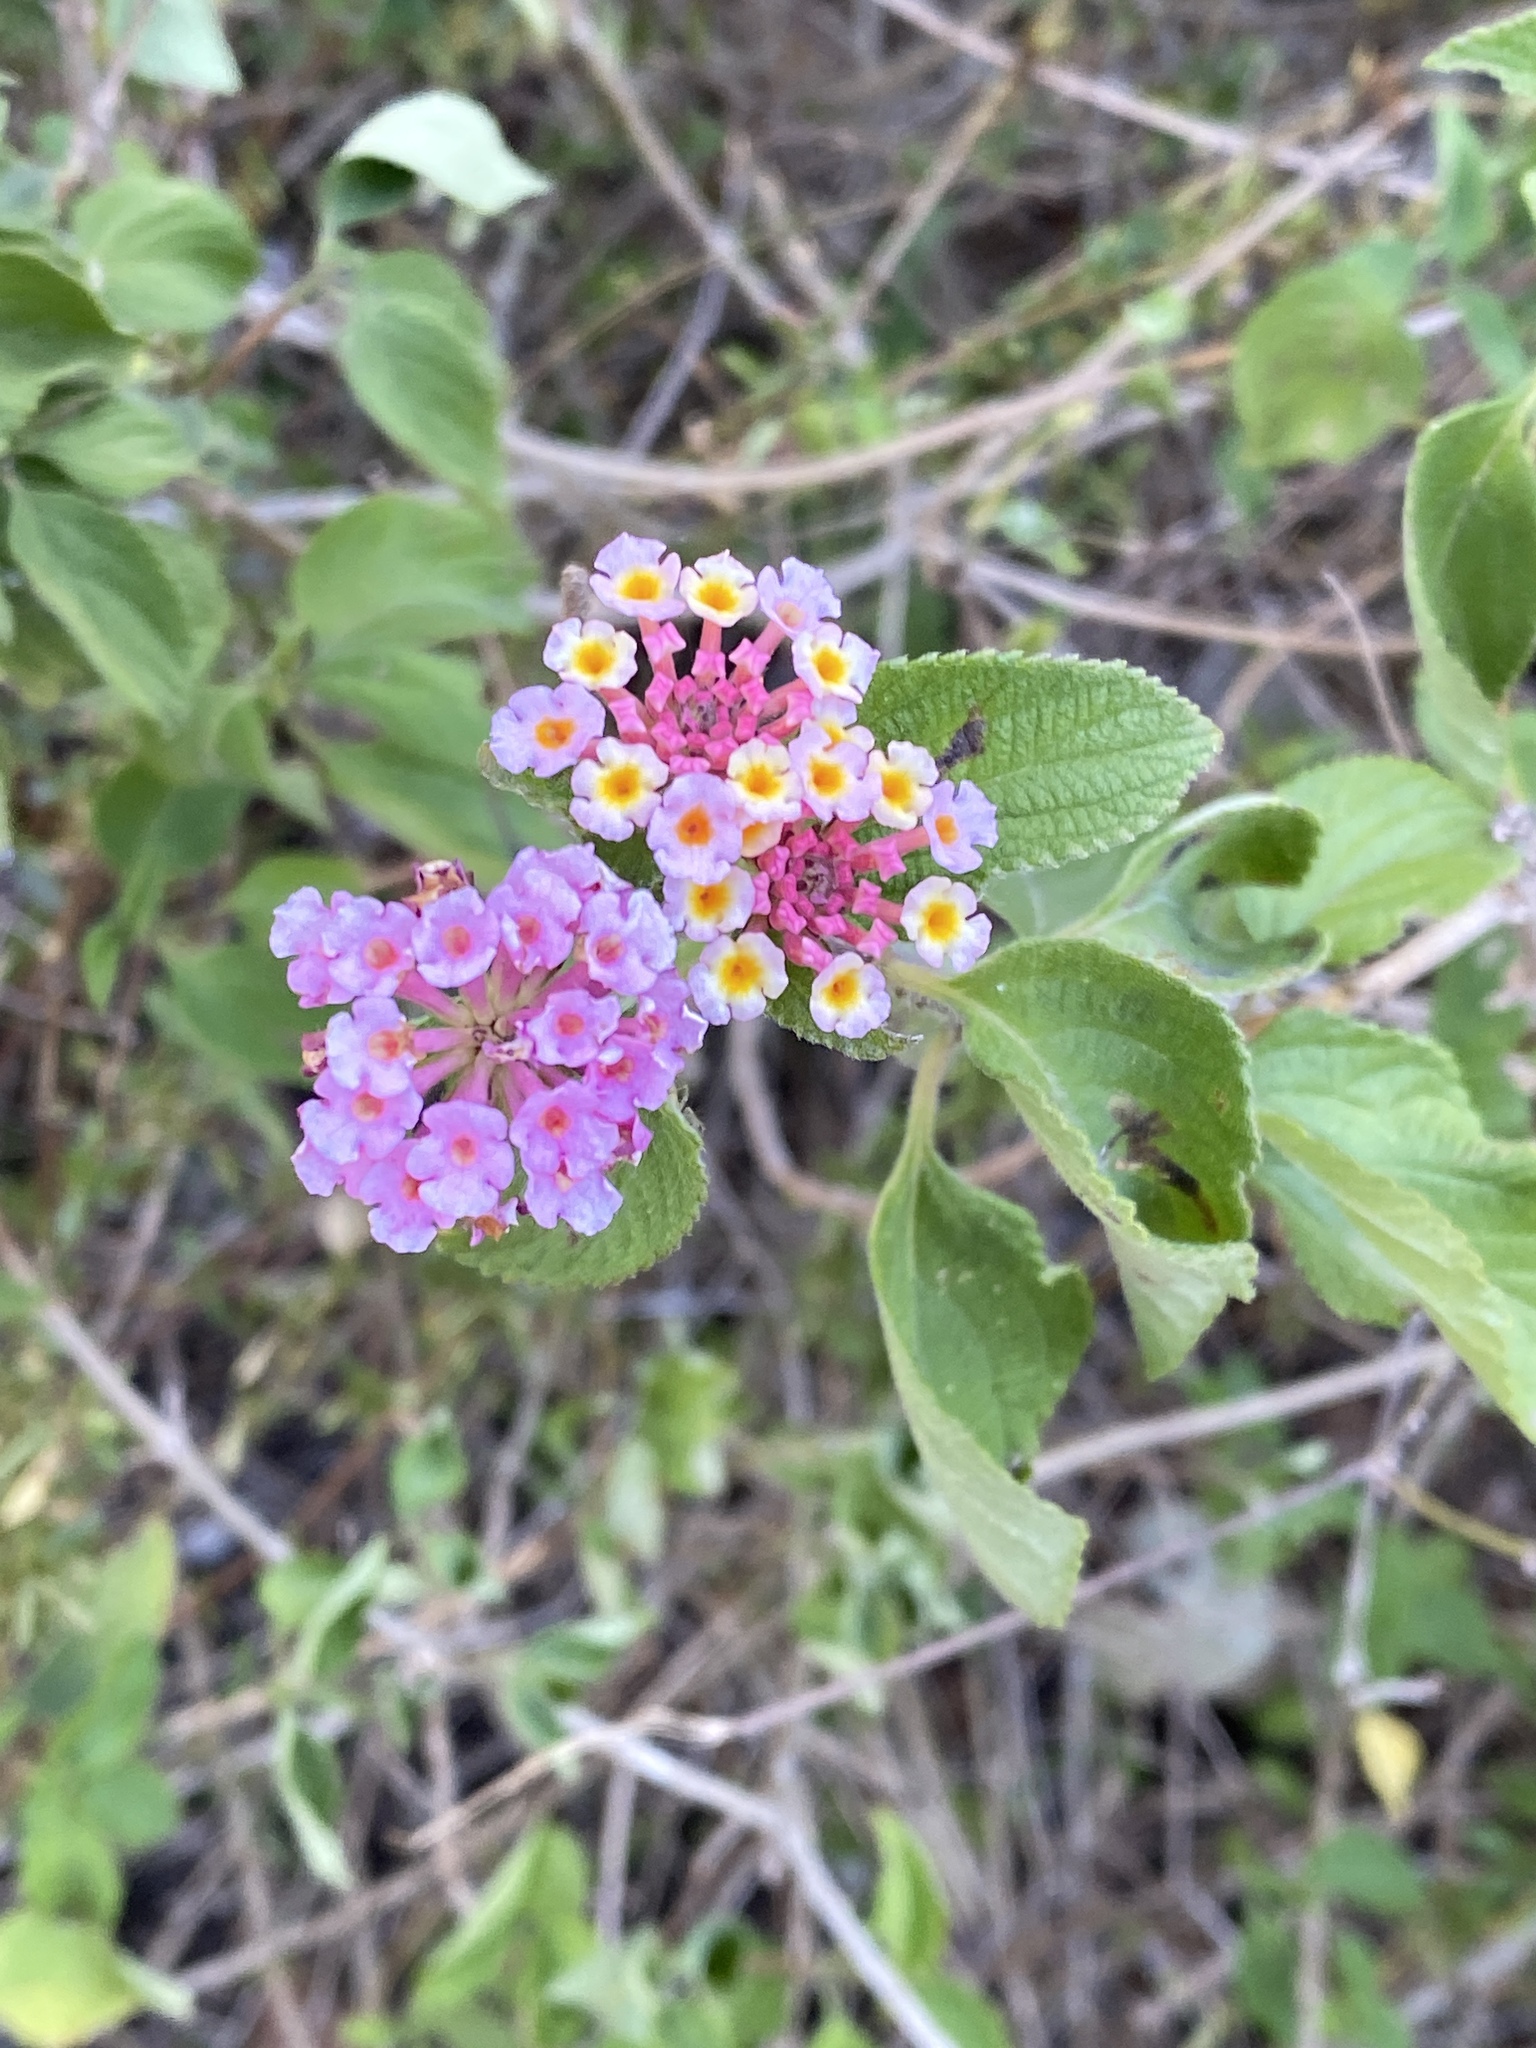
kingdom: Plantae
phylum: Tracheophyta
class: Magnoliopsida
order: Lamiales
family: Verbenaceae
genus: Lantana
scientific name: Lantana camara
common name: Lantana
